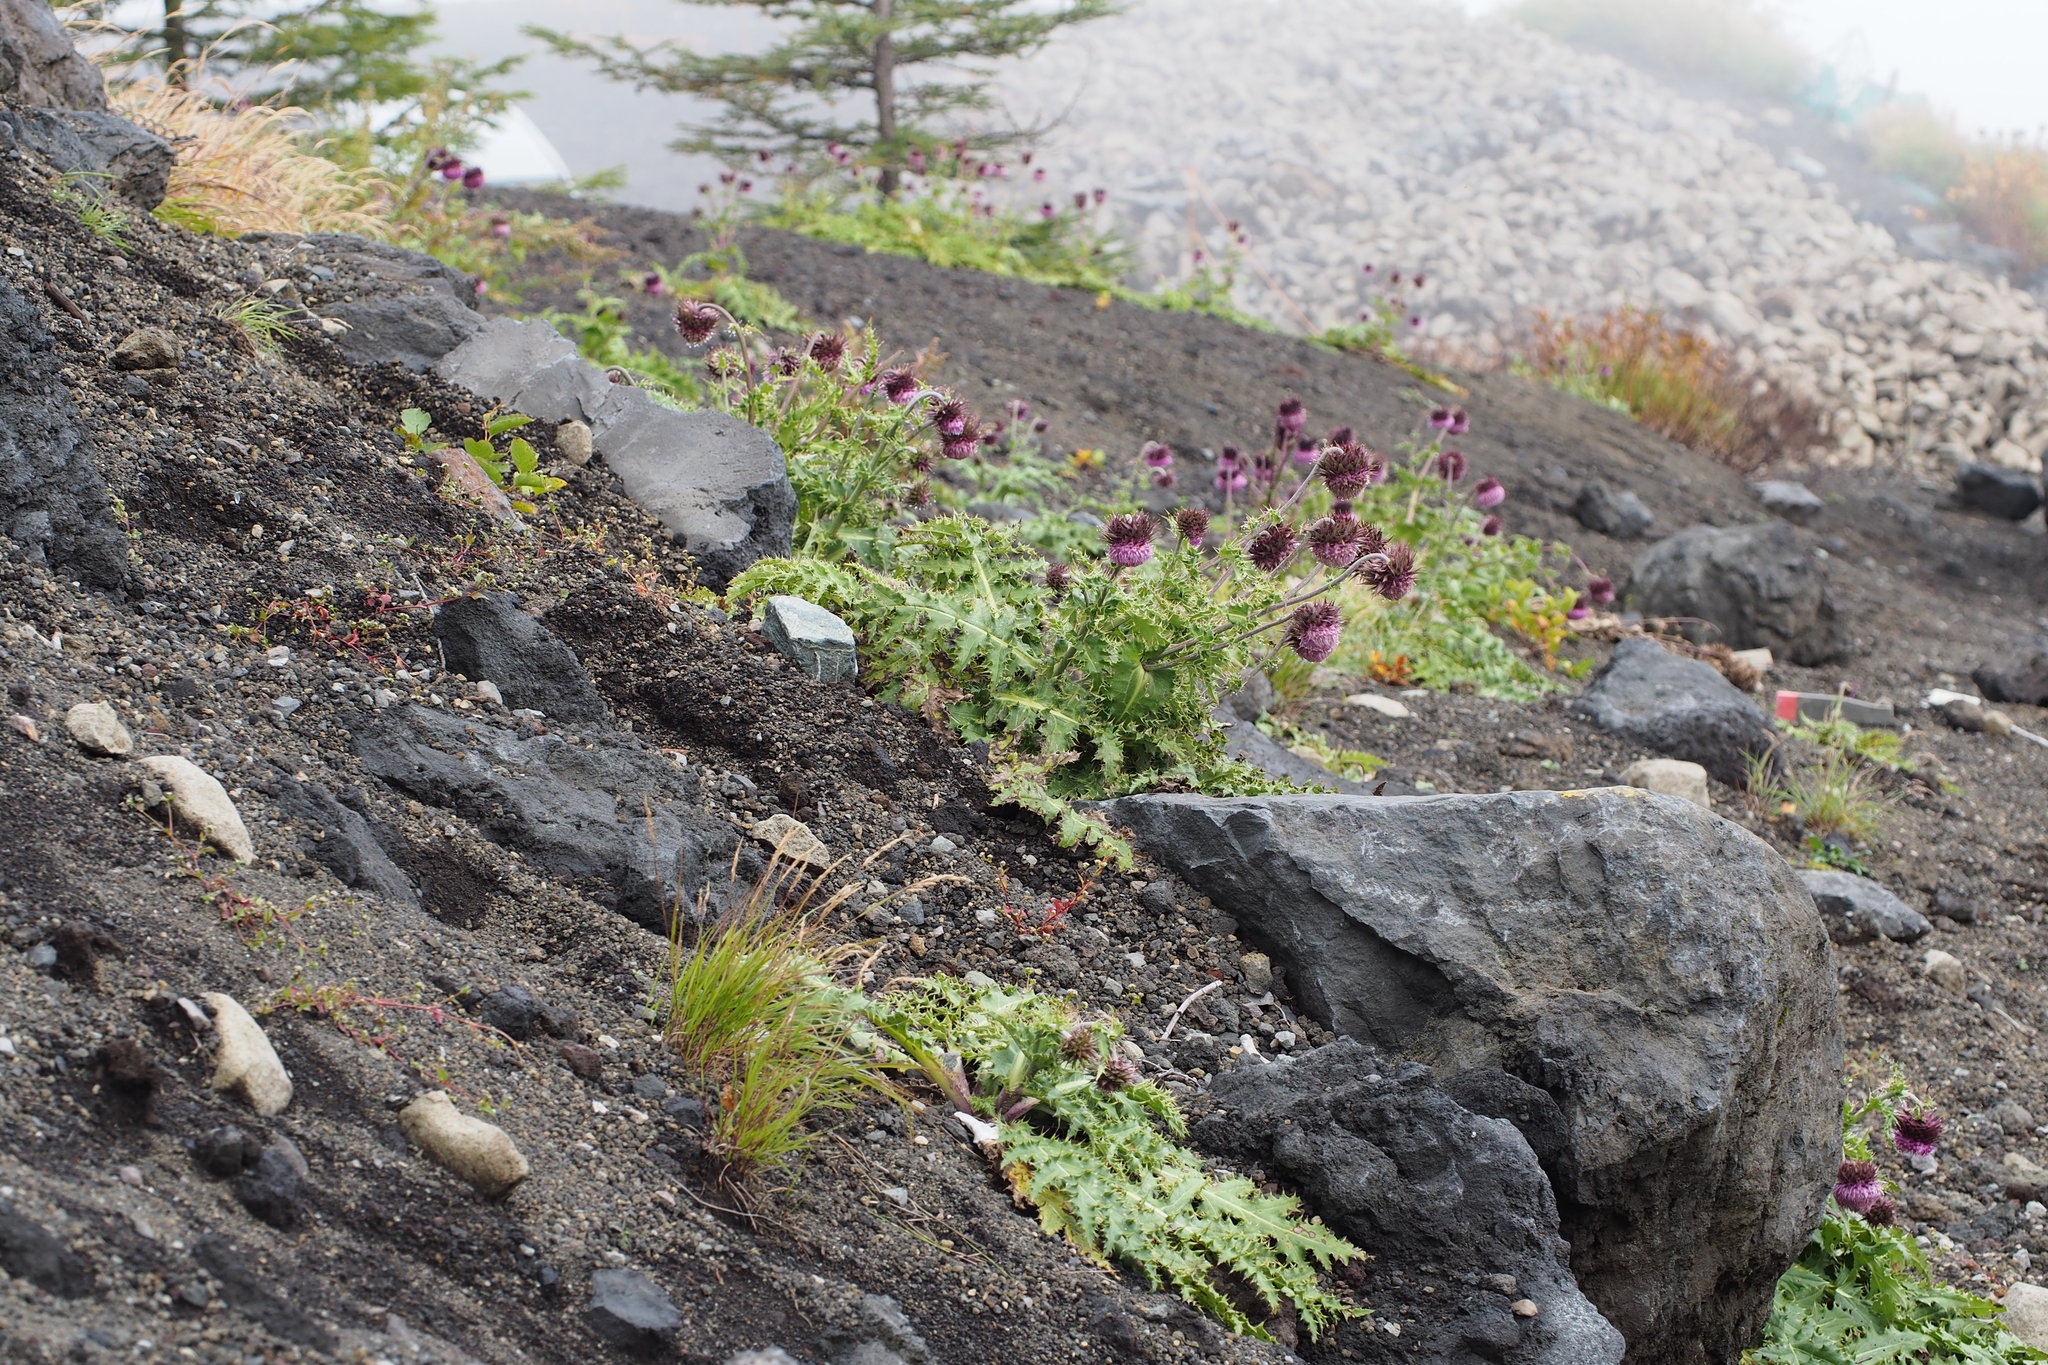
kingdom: Plantae
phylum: Tracheophyta
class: Magnoliopsida
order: Asterales
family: Asteraceae
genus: Cirsium
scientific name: Cirsium purpuratum
